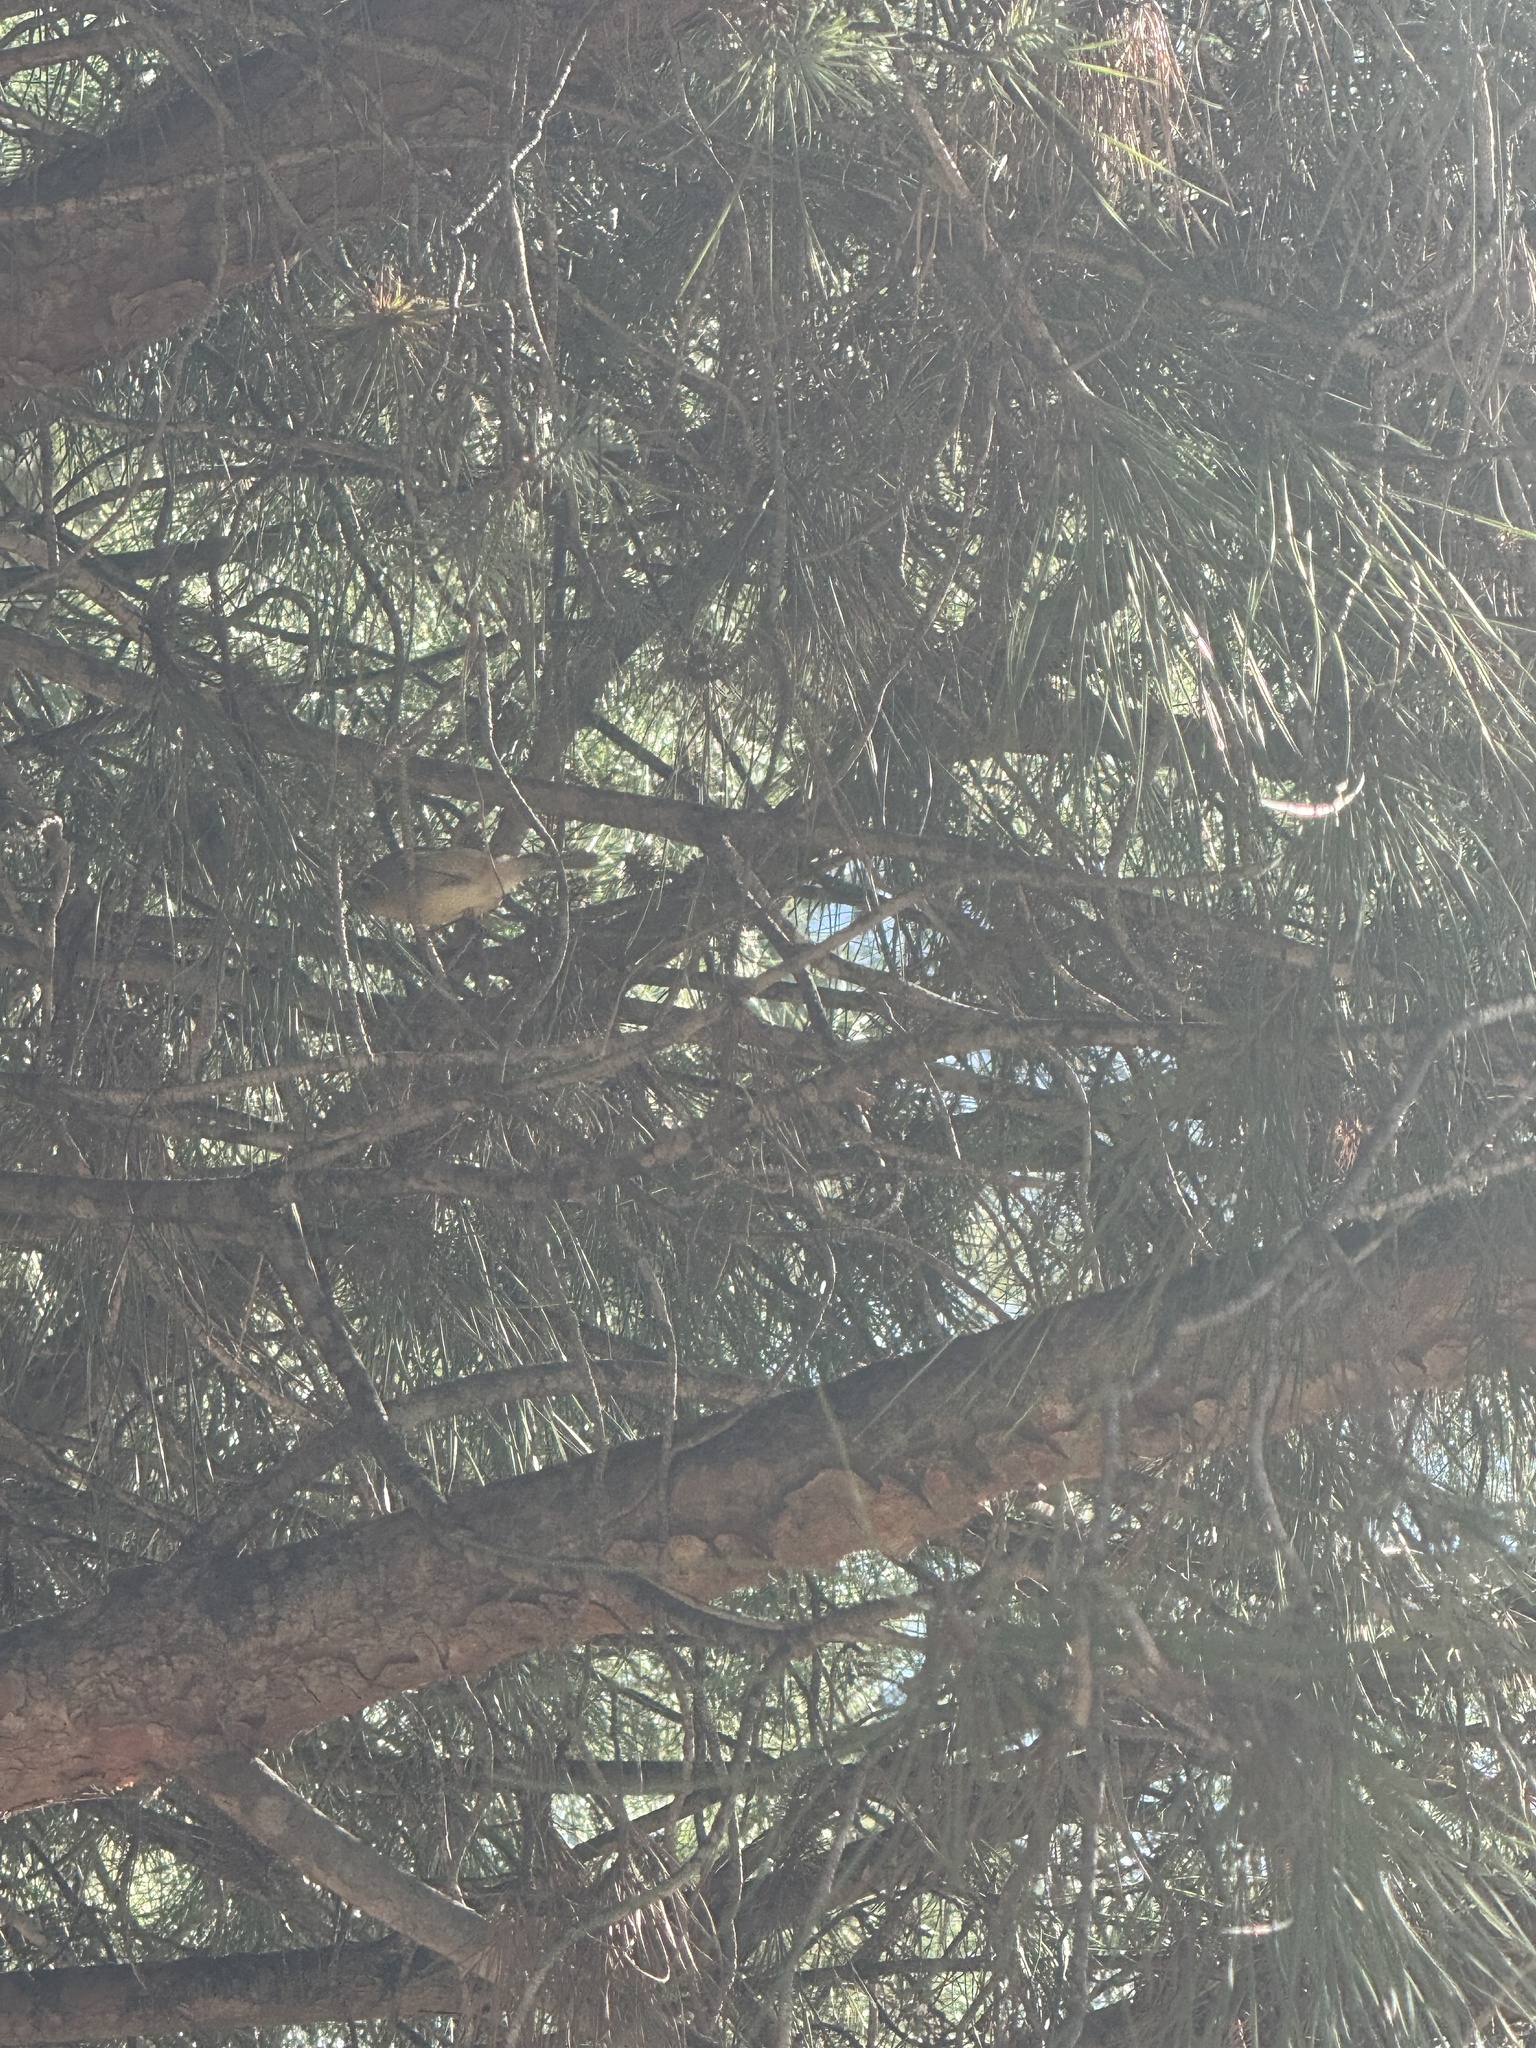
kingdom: Animalia
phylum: Chordata
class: Aves
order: Passeriformes
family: Regulidae
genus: Regulus
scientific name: Regulus calendula
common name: Ruby-crowned kinglet
